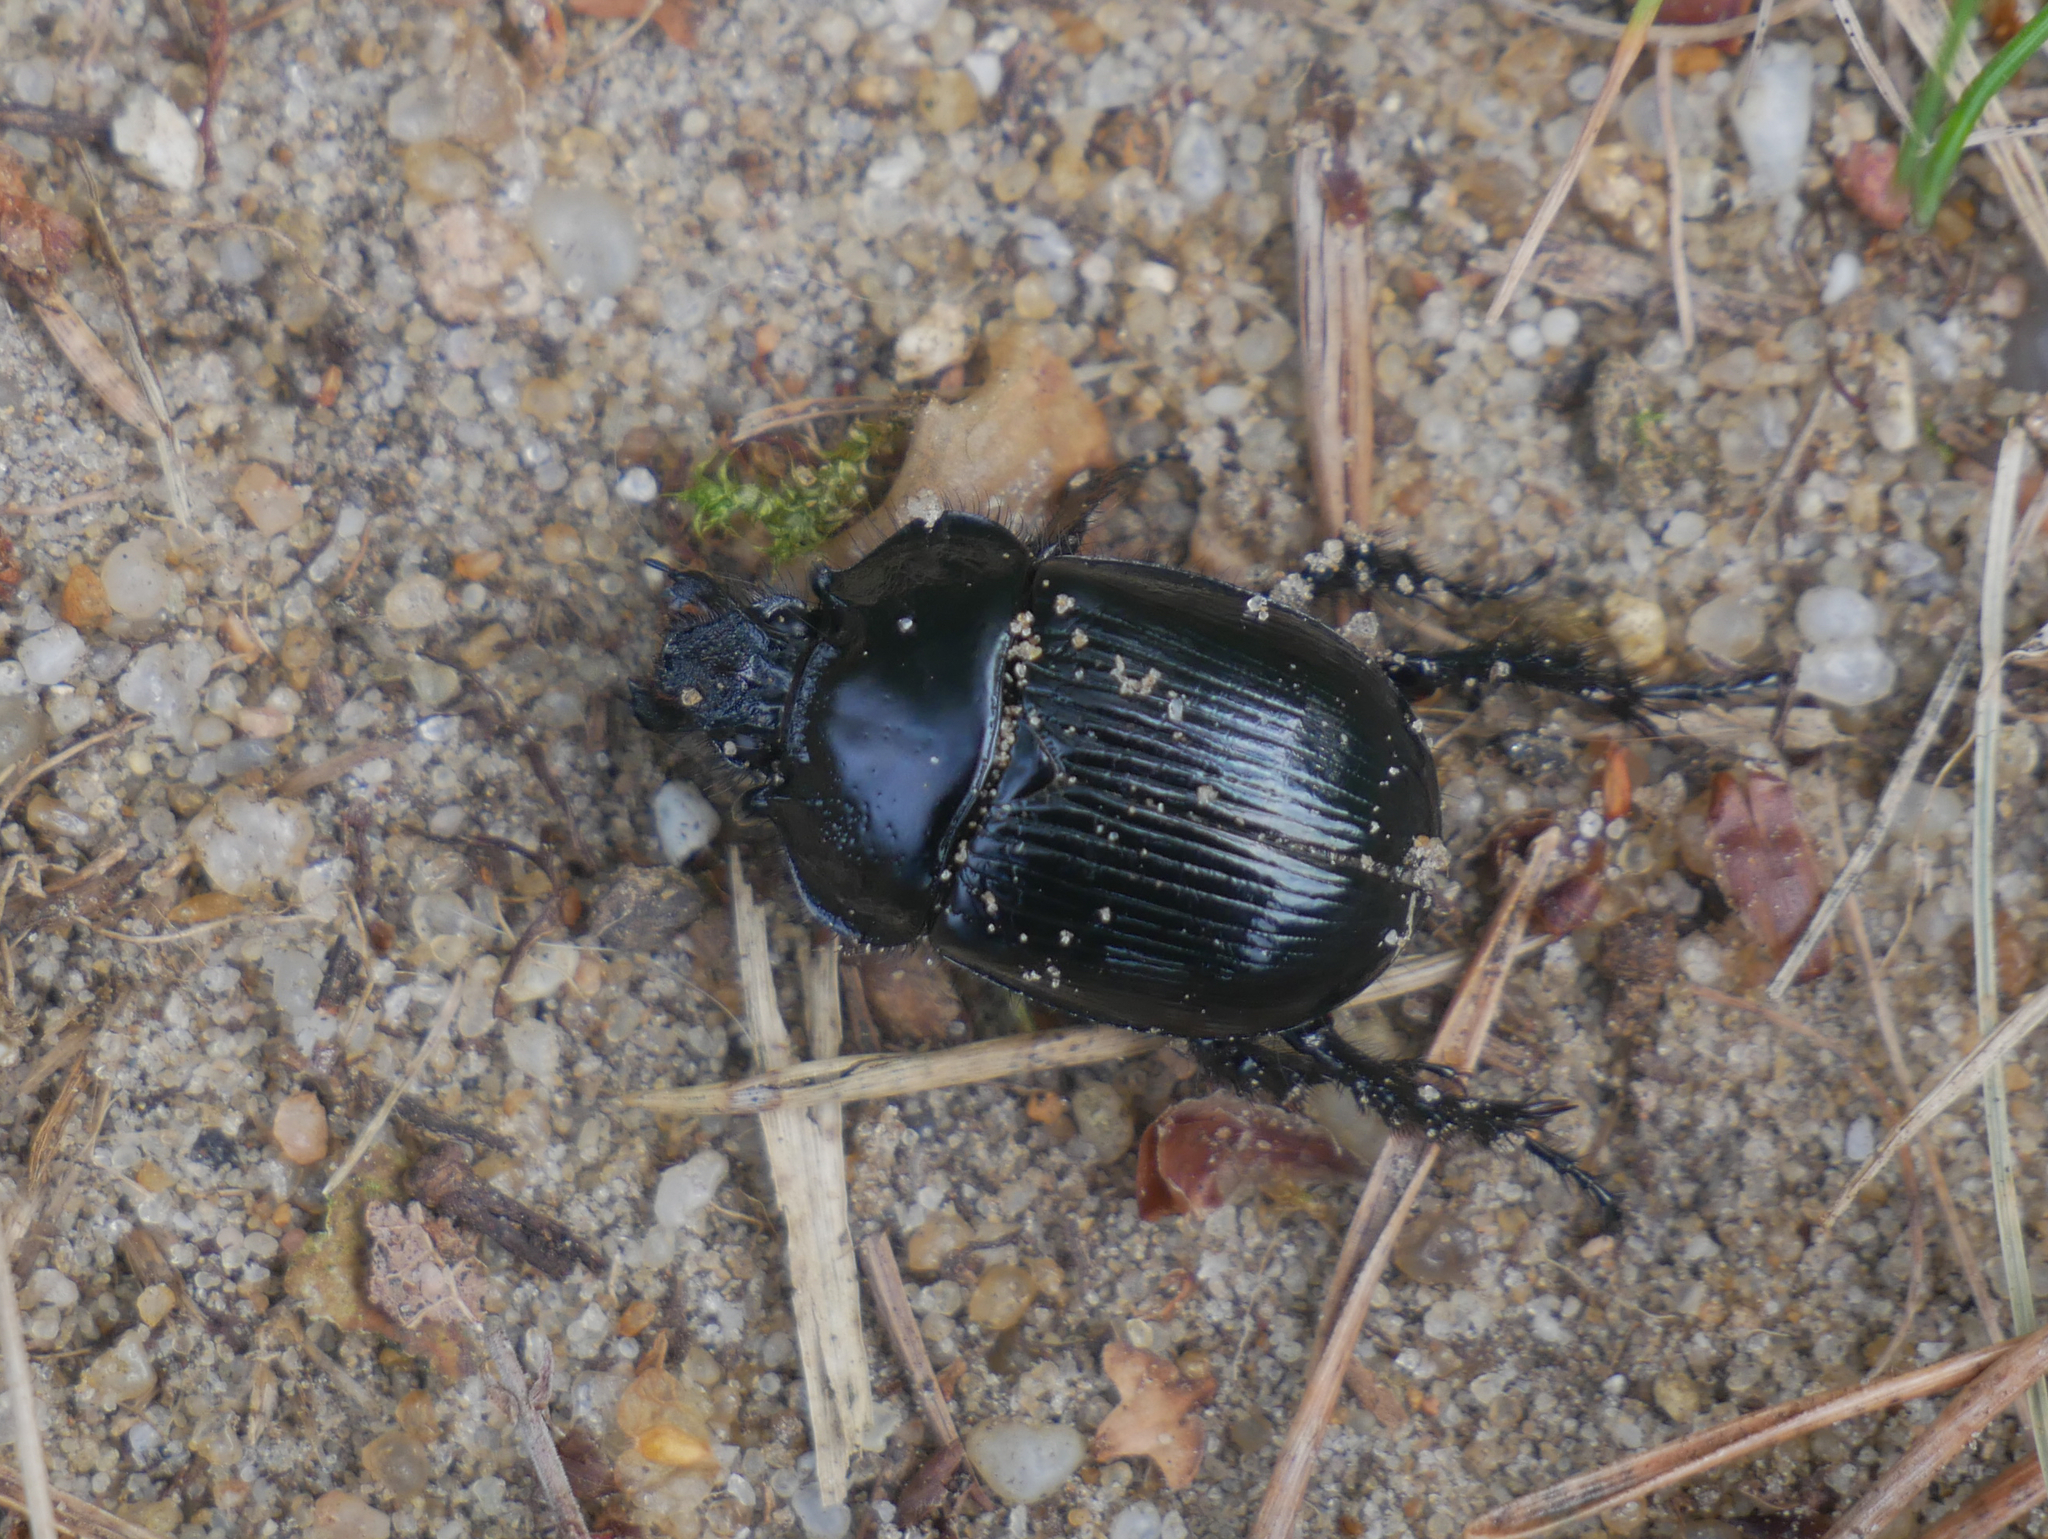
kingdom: Animalia
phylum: Arthropoda
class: Insecta
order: Coleoptera
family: Geotrupidae
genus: Typhaeus
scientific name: Typhaeus typhoeus
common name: Minotaur beetle
